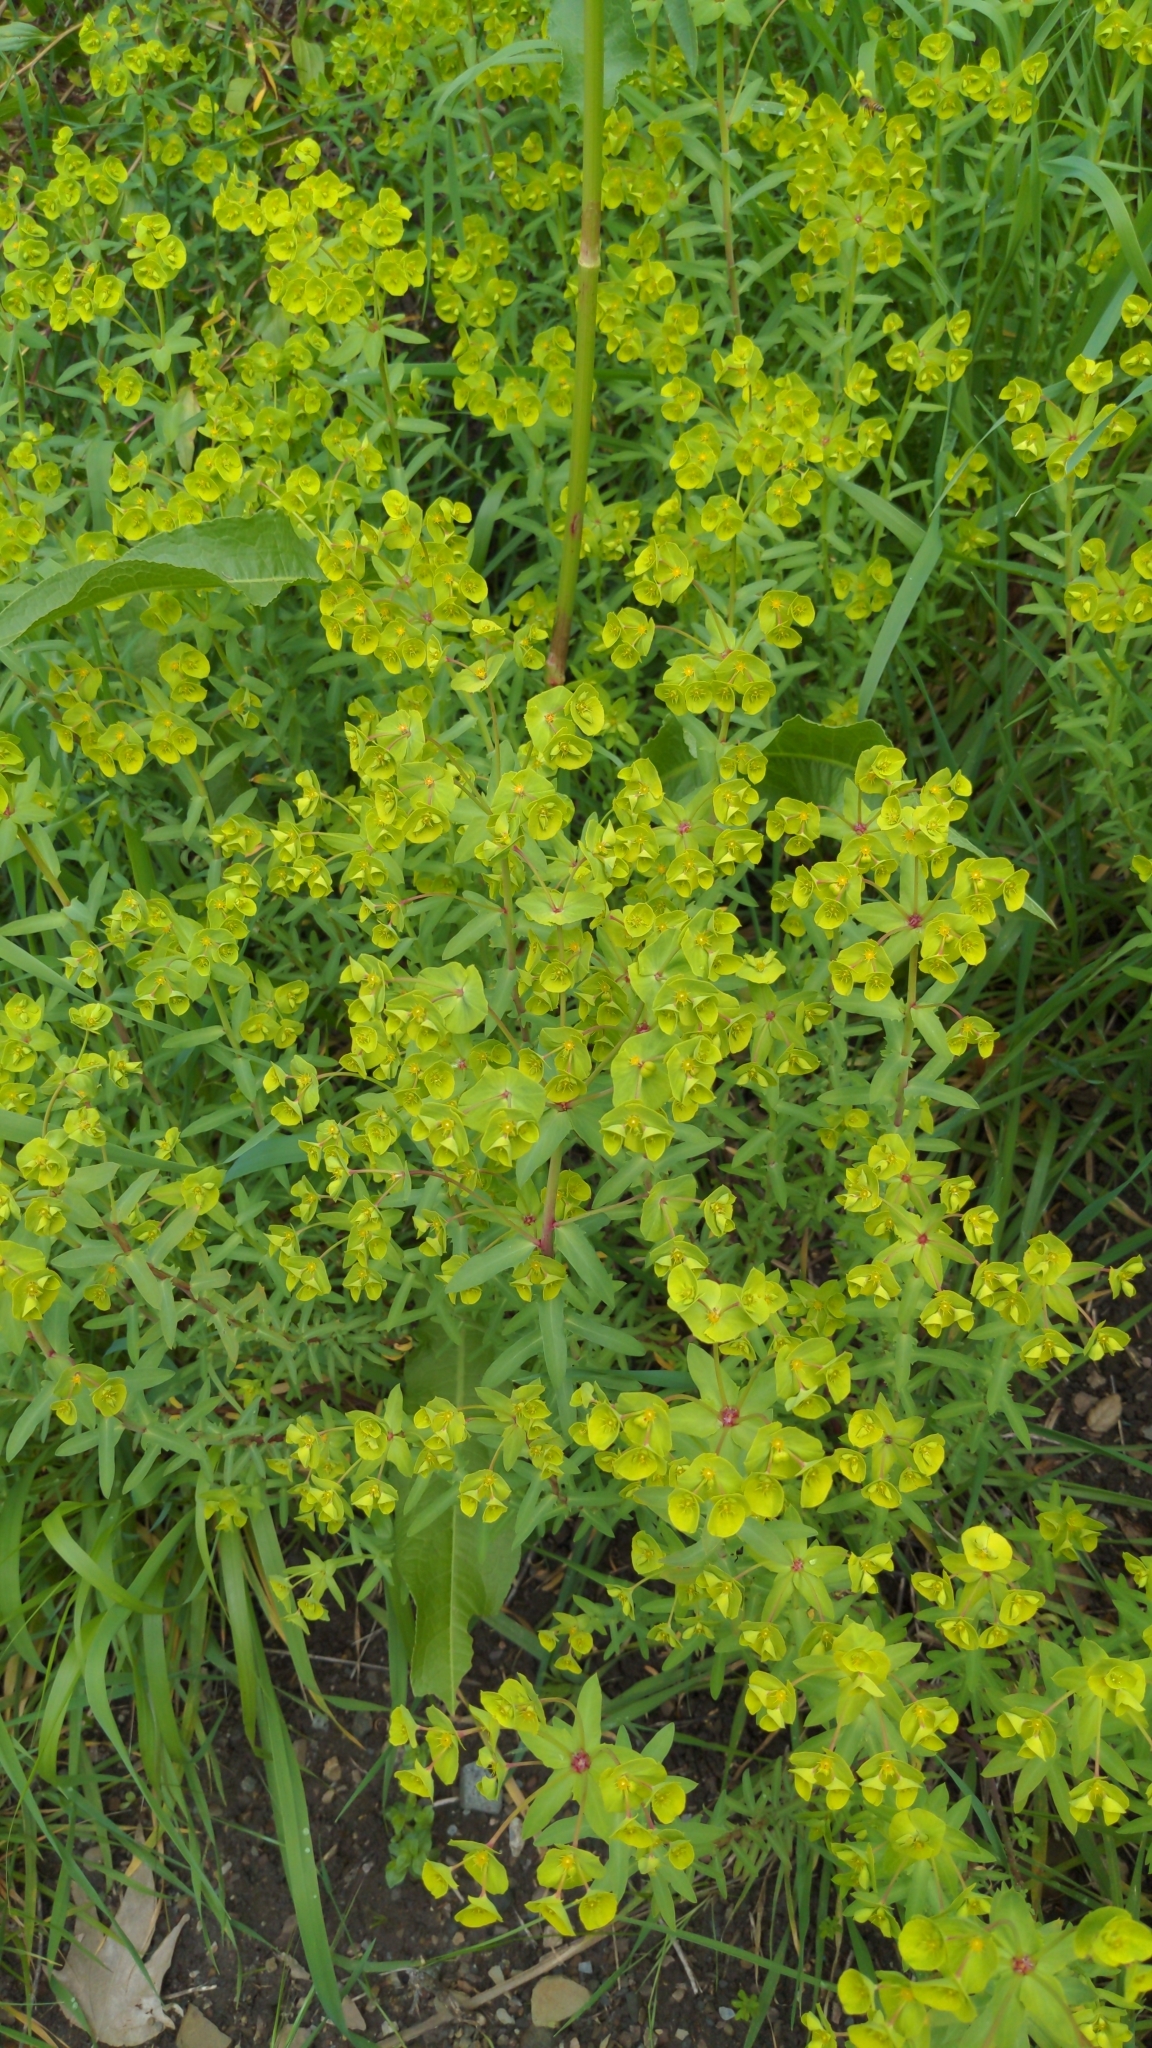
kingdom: Plantae
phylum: Tracheophyta
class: Magnoliopsida
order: Malpighiales
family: Euphorbiaceae
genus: Euphorbia
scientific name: Euphorbia terracina
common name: Geraldton carnation weed
